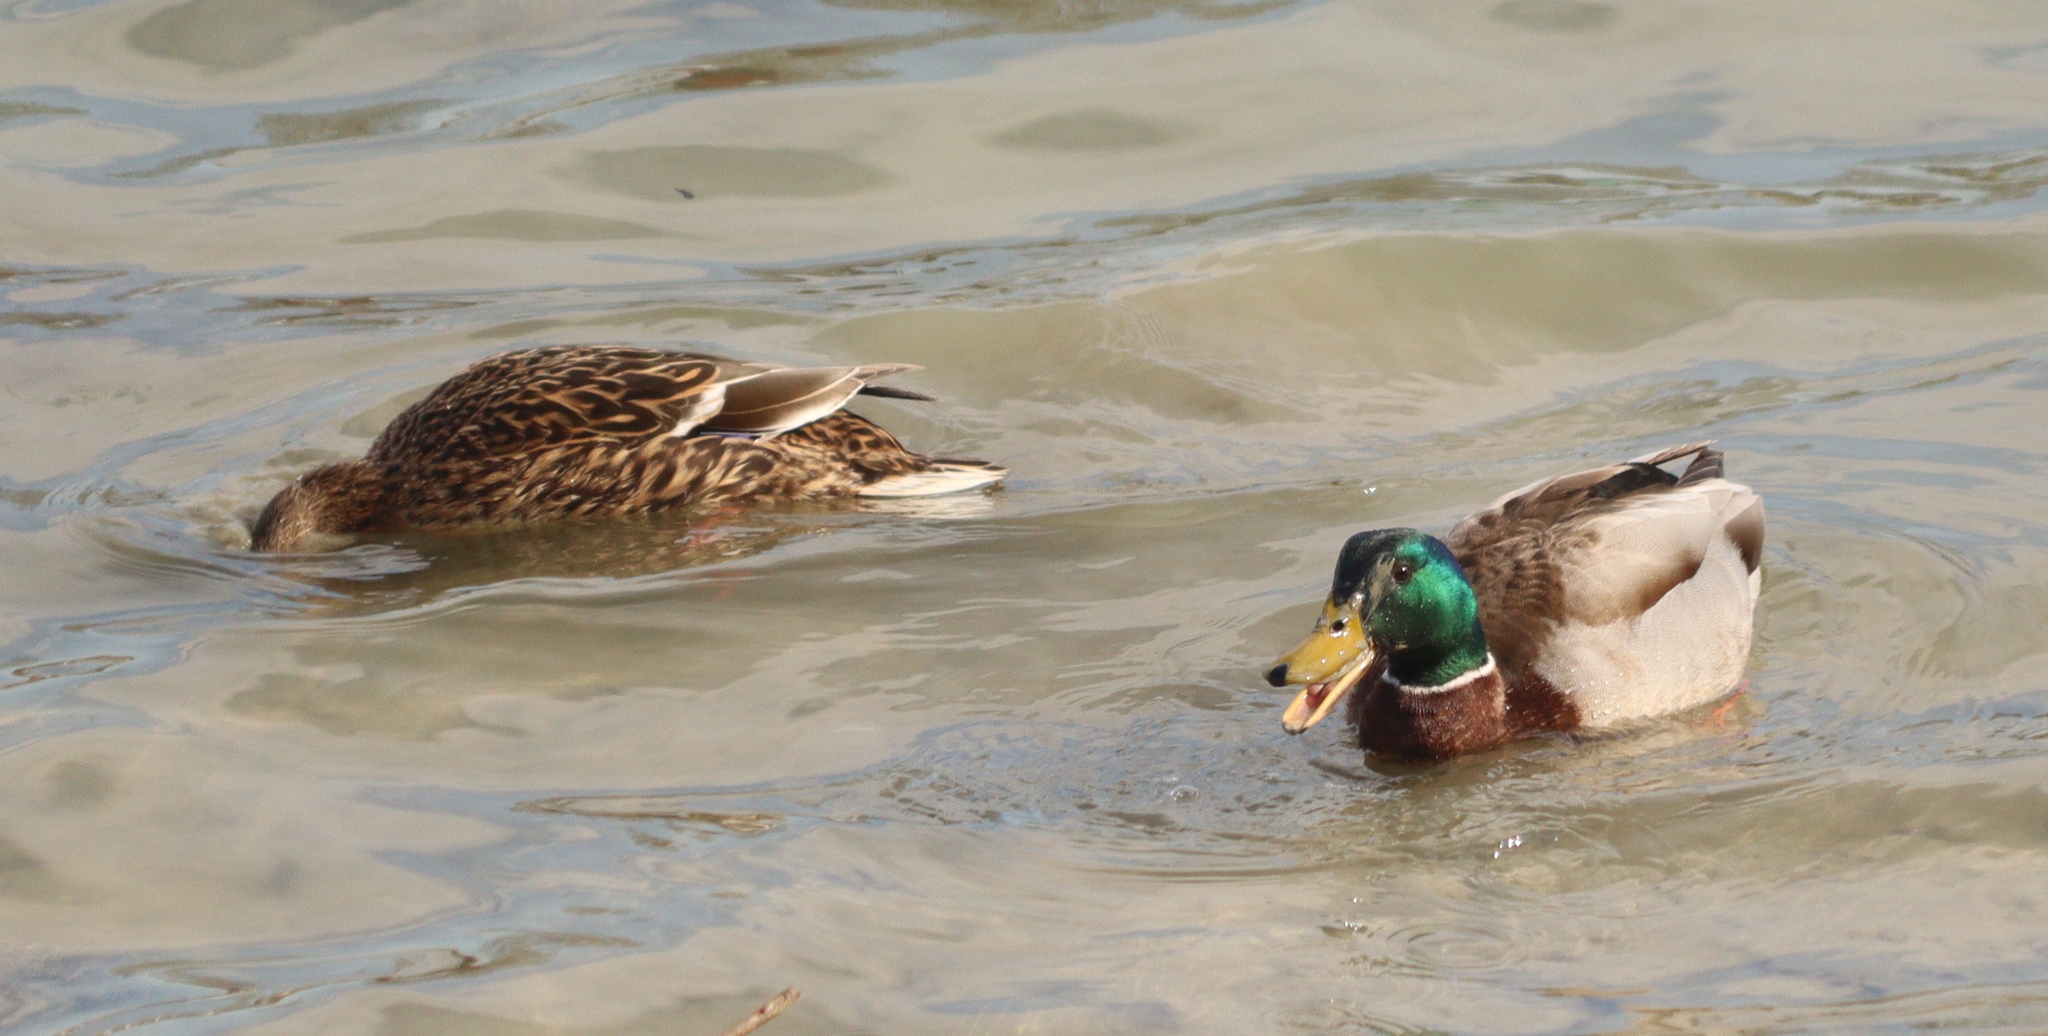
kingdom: Animalia
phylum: Chordata
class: Aves
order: Anseriformes
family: Anatidae
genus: Anas
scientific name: Anas platyrhynchos
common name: Mallard
